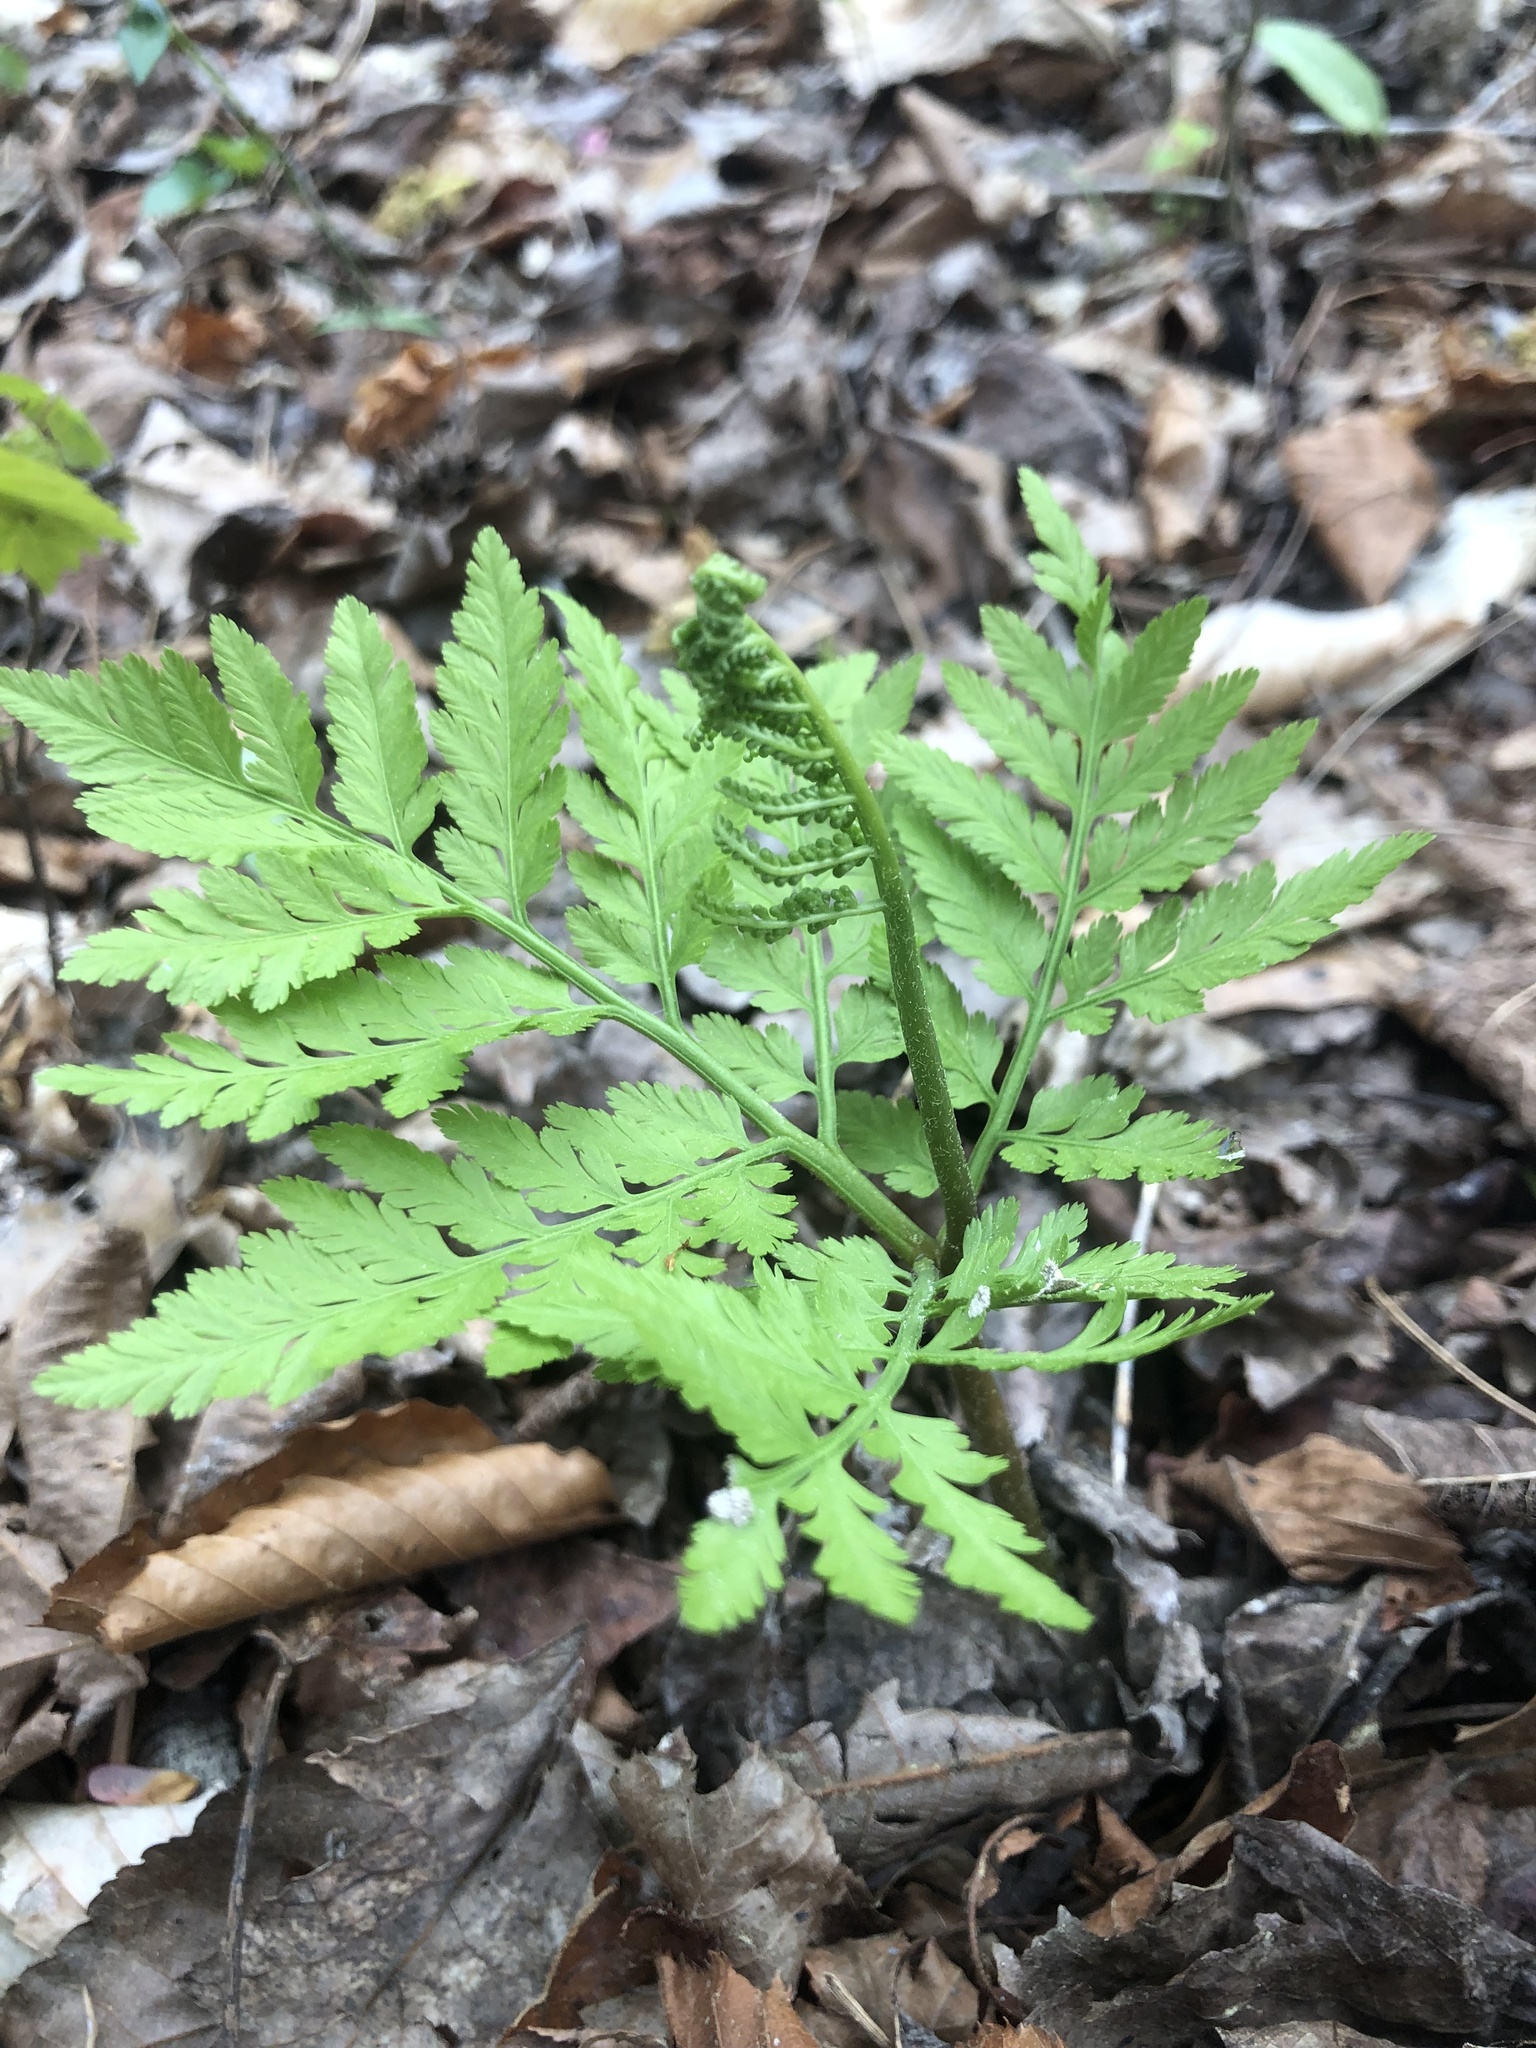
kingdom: Plantae
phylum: Tracheophyta
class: Polypodiopsida
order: Ophioglossales
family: Ophioglossaceae
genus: Botrypus
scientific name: Botrypus virginianus
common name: Common grapefern
